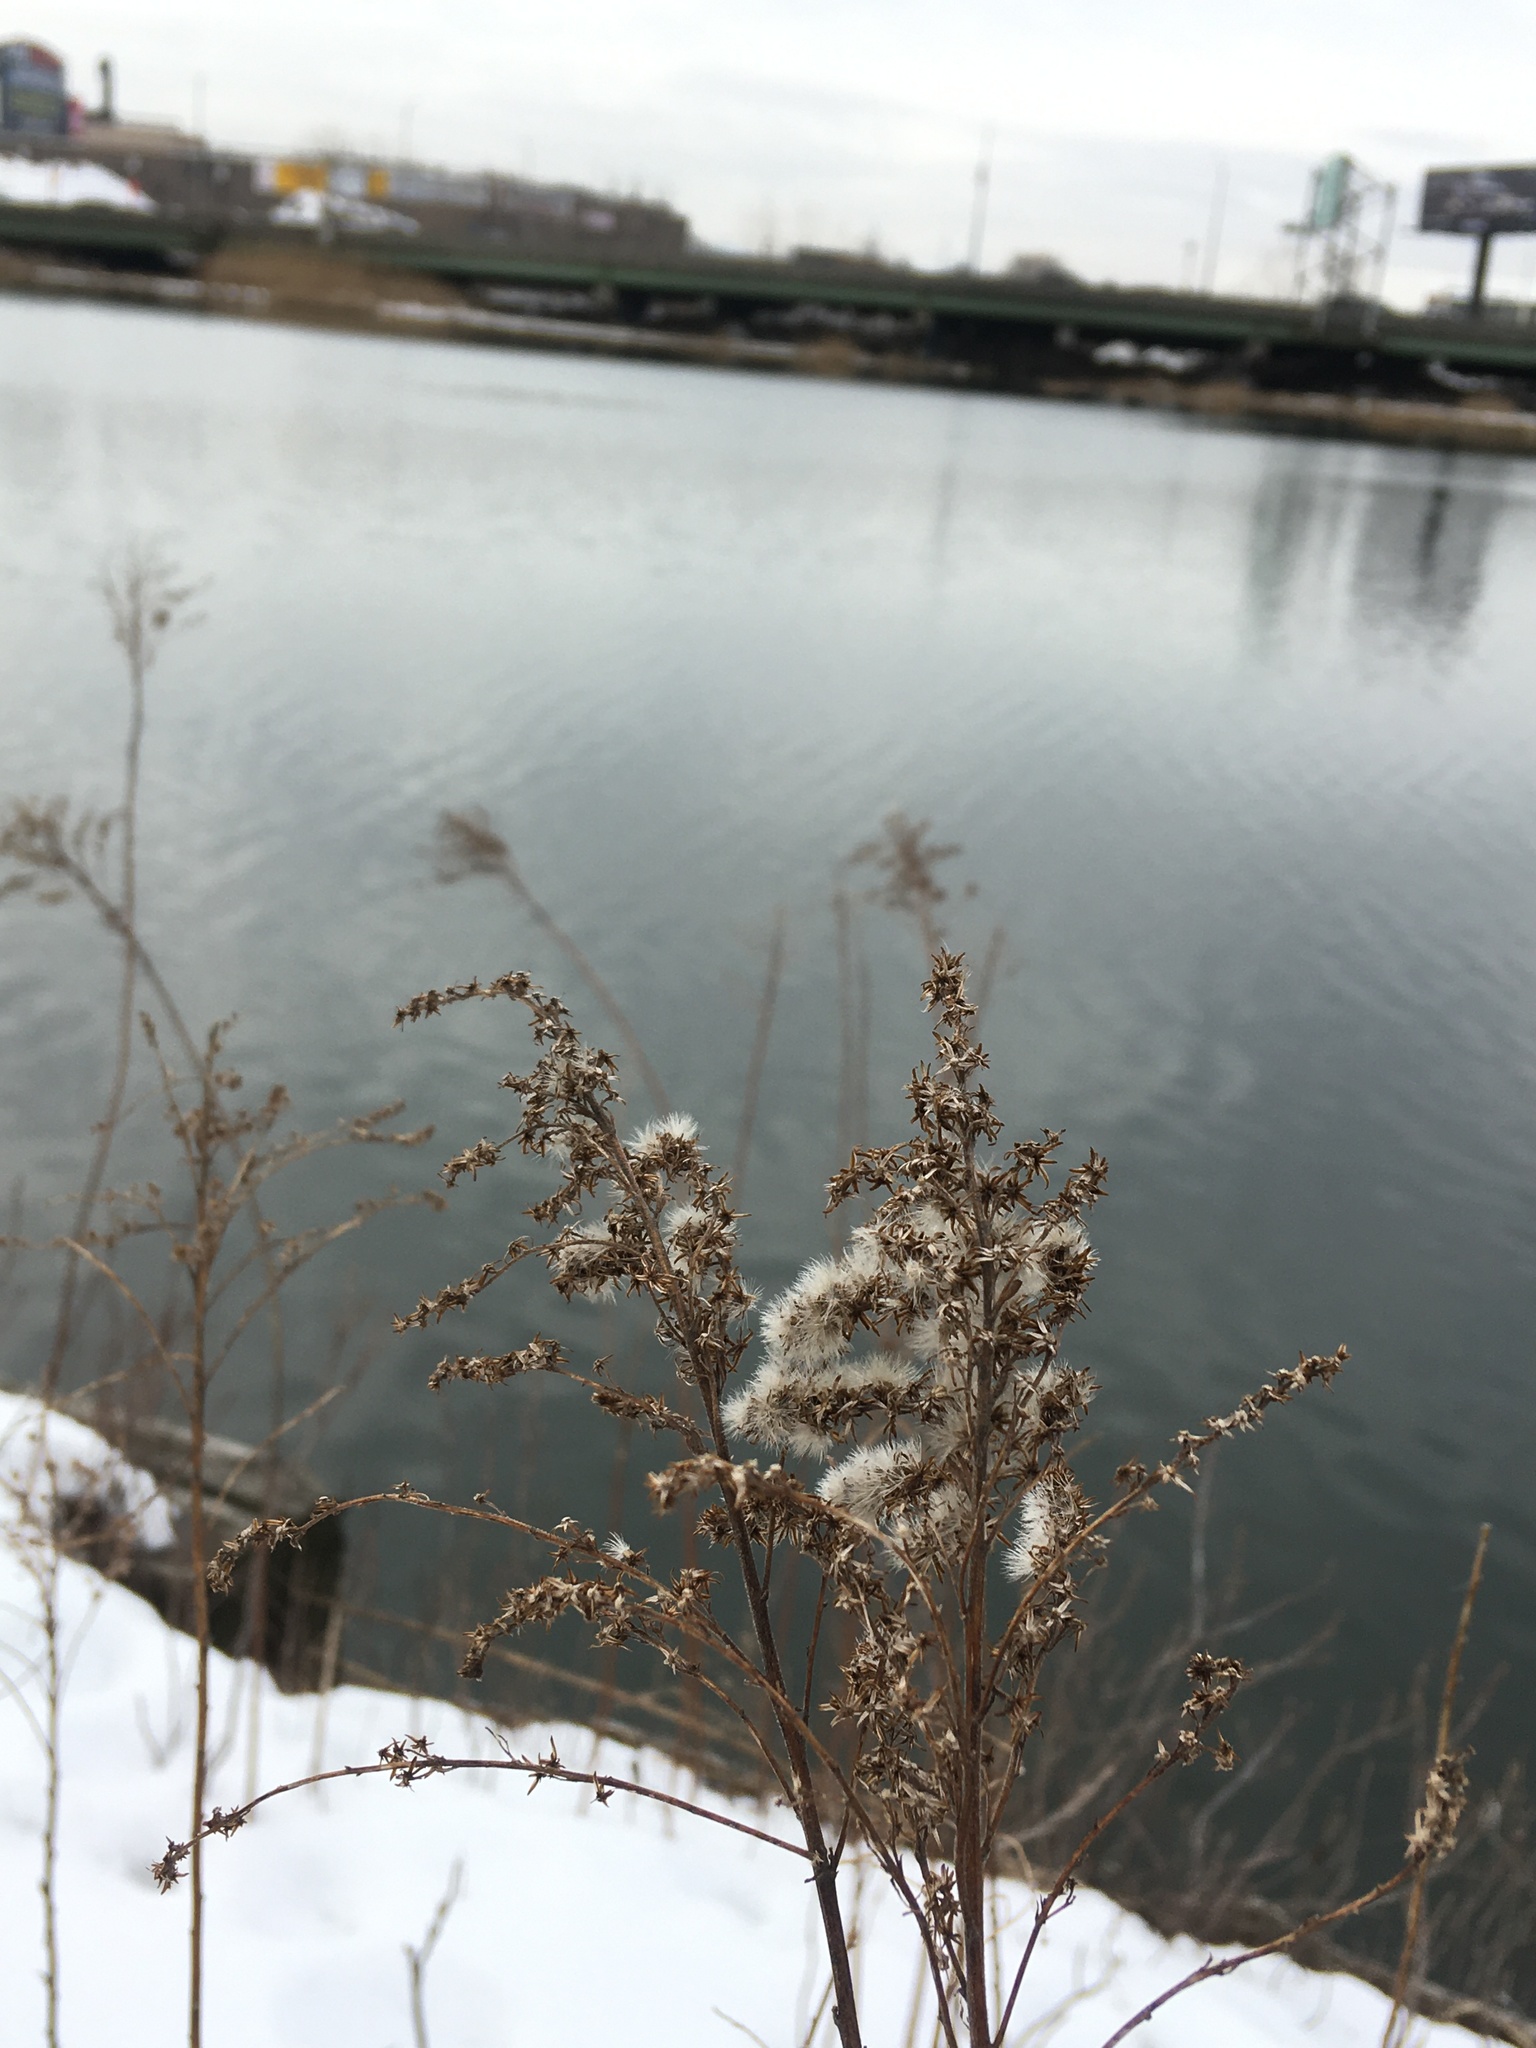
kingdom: Plantae
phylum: Tracheophyta
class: Magnoliopsida
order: Asterales
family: Asteraceae
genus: Solidago
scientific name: Solidago sempervirens
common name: Salt-marsh goldenrod
